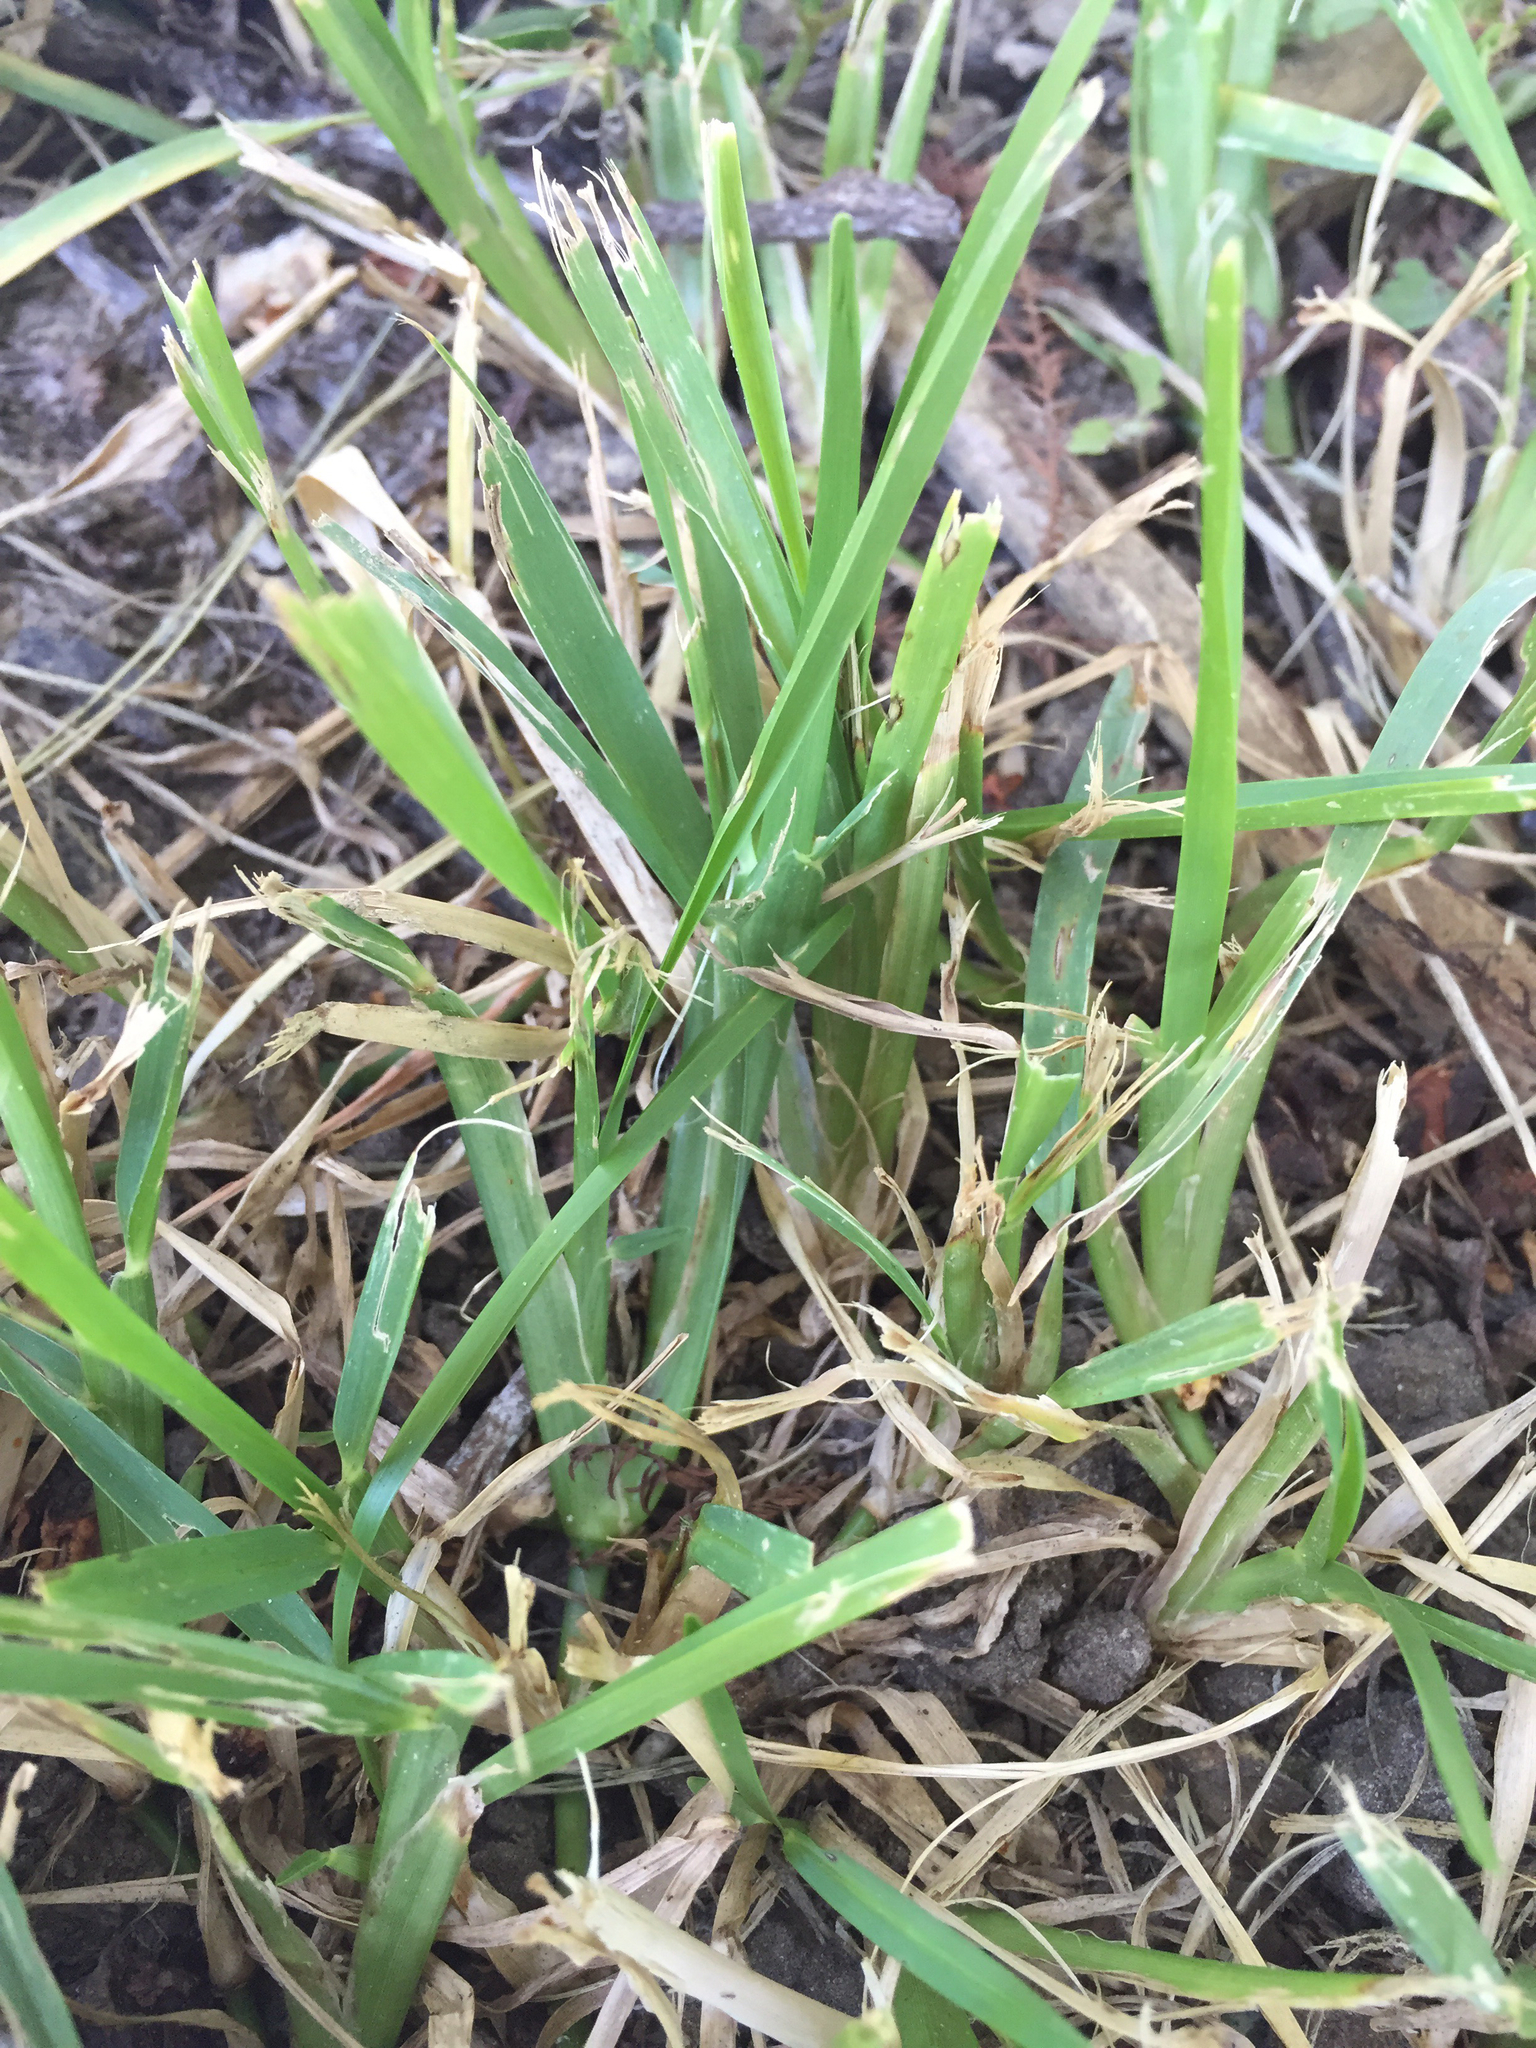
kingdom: Plantae
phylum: Tracheophyta
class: Liliopsida
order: Poales
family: Poaceae
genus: Stenotaphrum
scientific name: Stenotaphrum secundatum
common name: St. augustine grass
